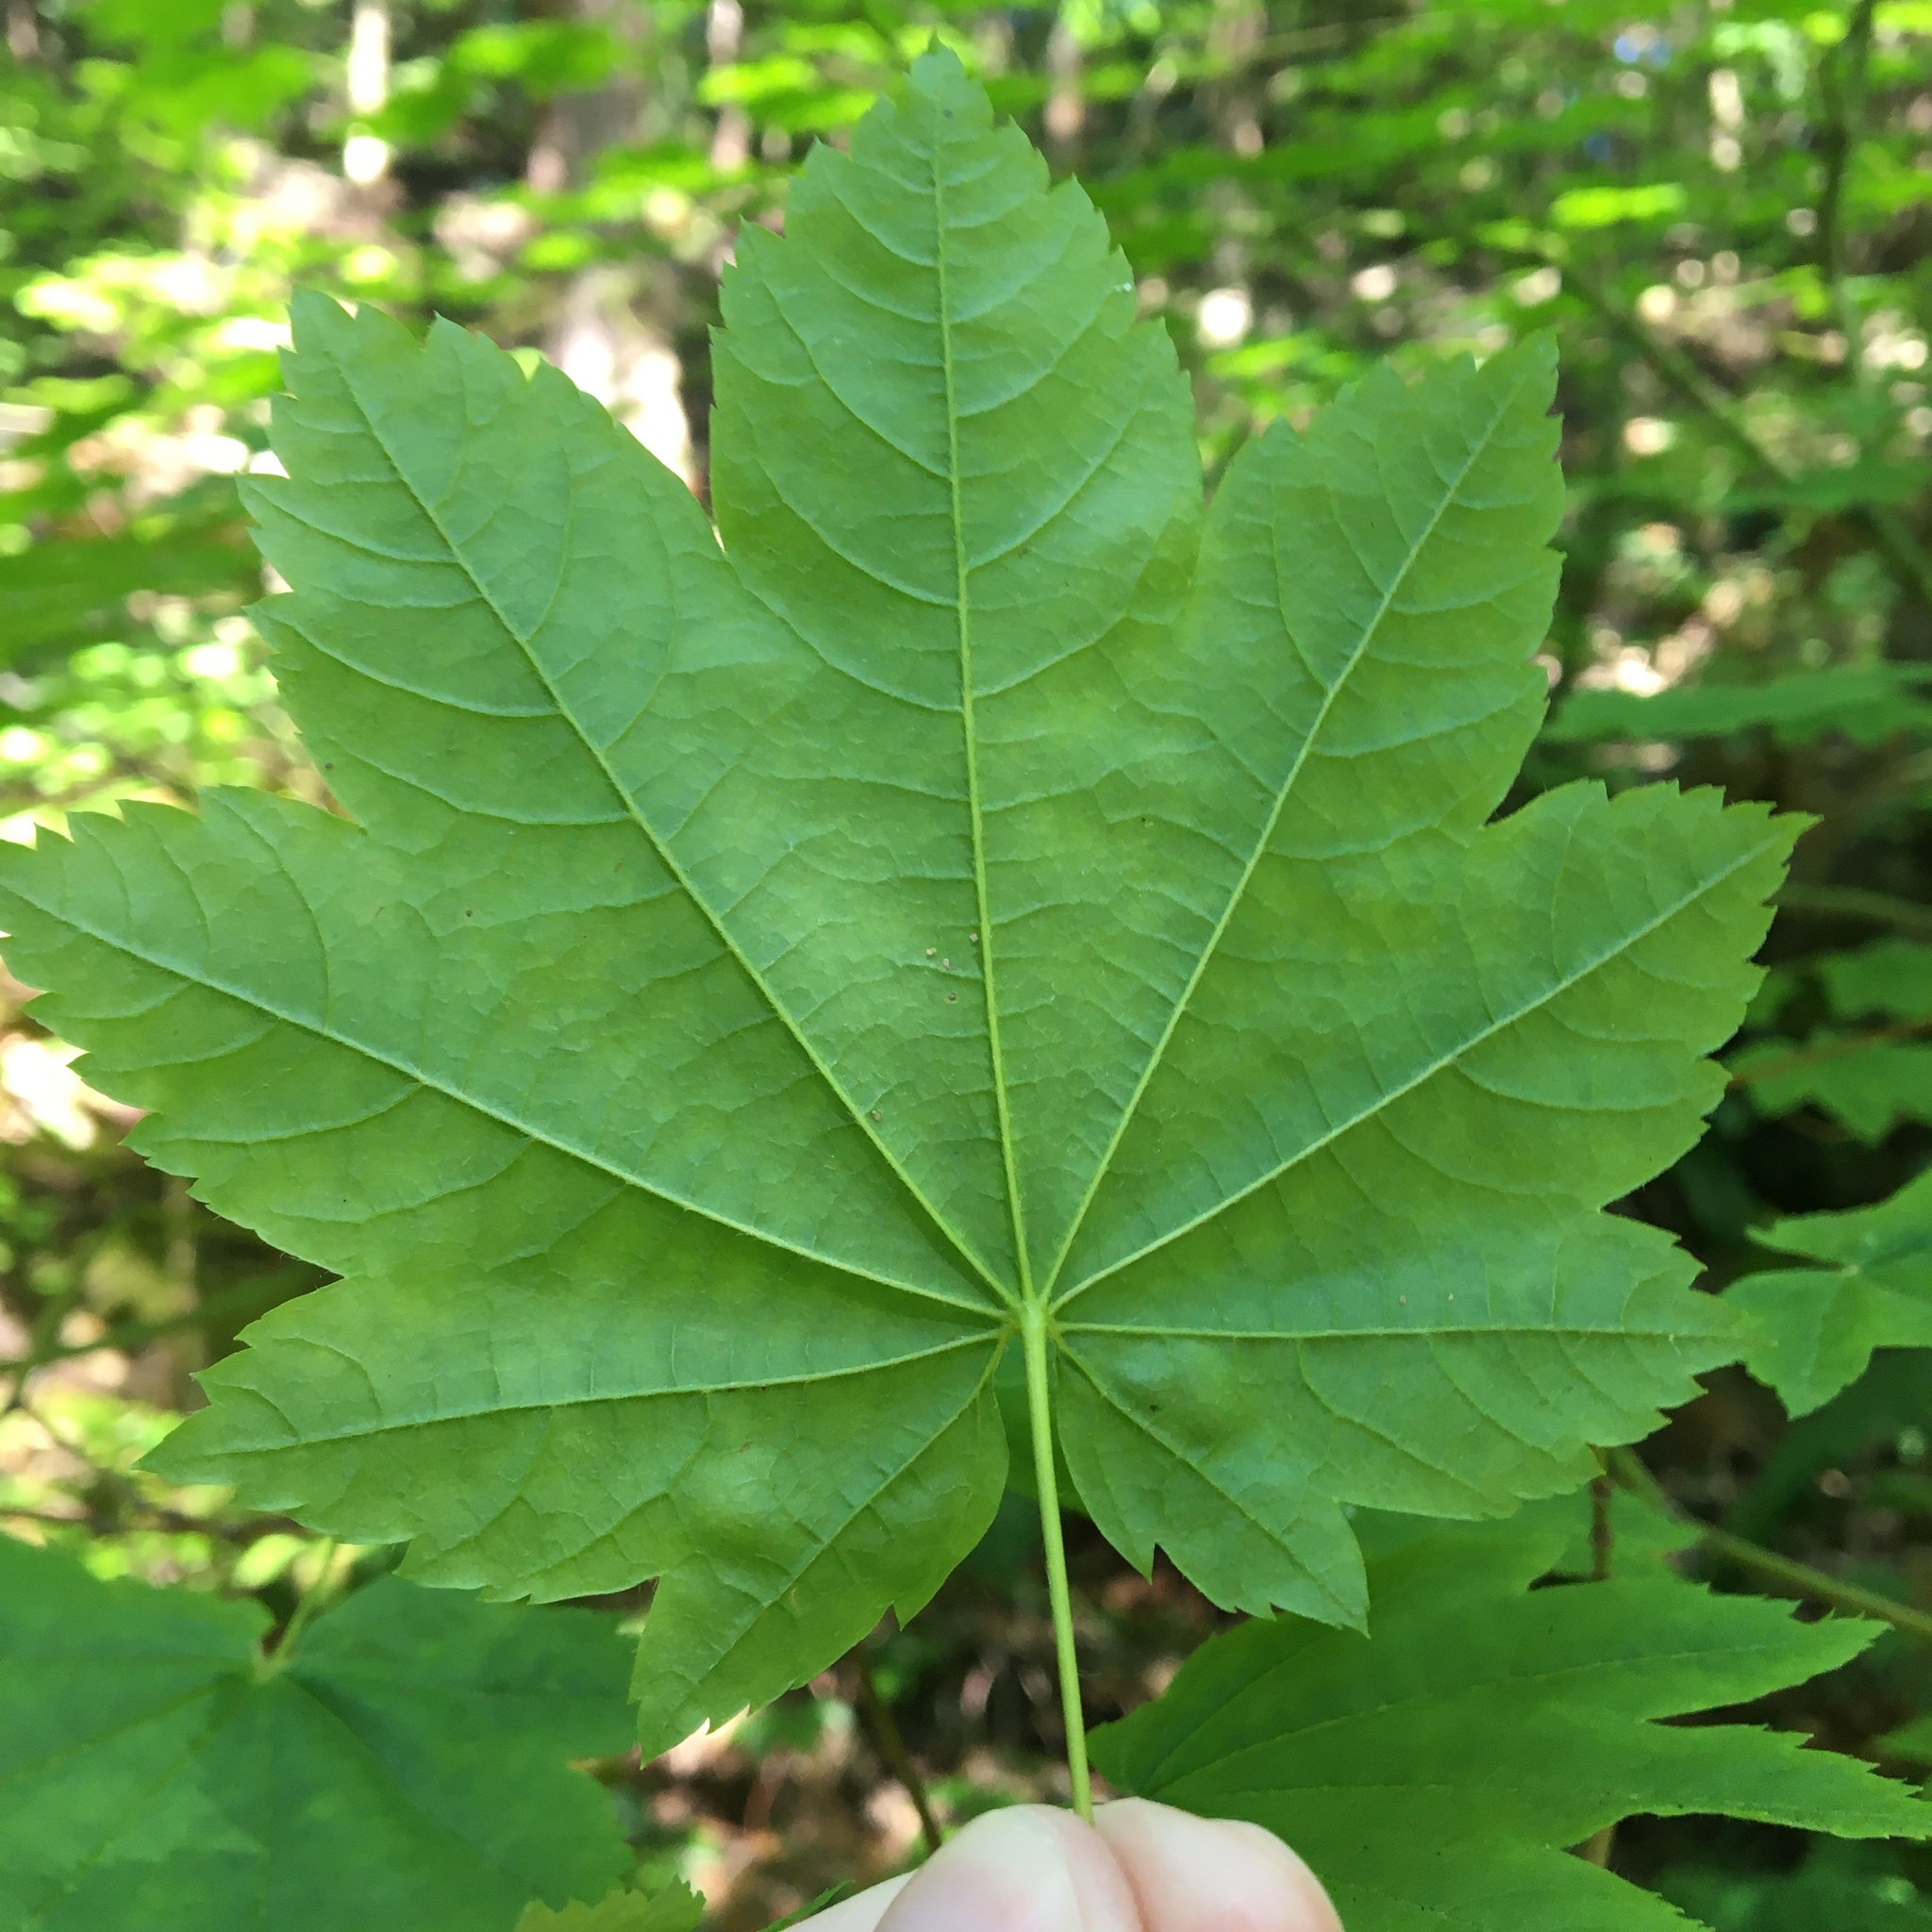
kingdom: Plantae
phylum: Tracheophyta
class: Magnoliopsida
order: Sapindales
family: Sapindaceae
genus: Acer
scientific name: Acer circinatum
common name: Vine maple
